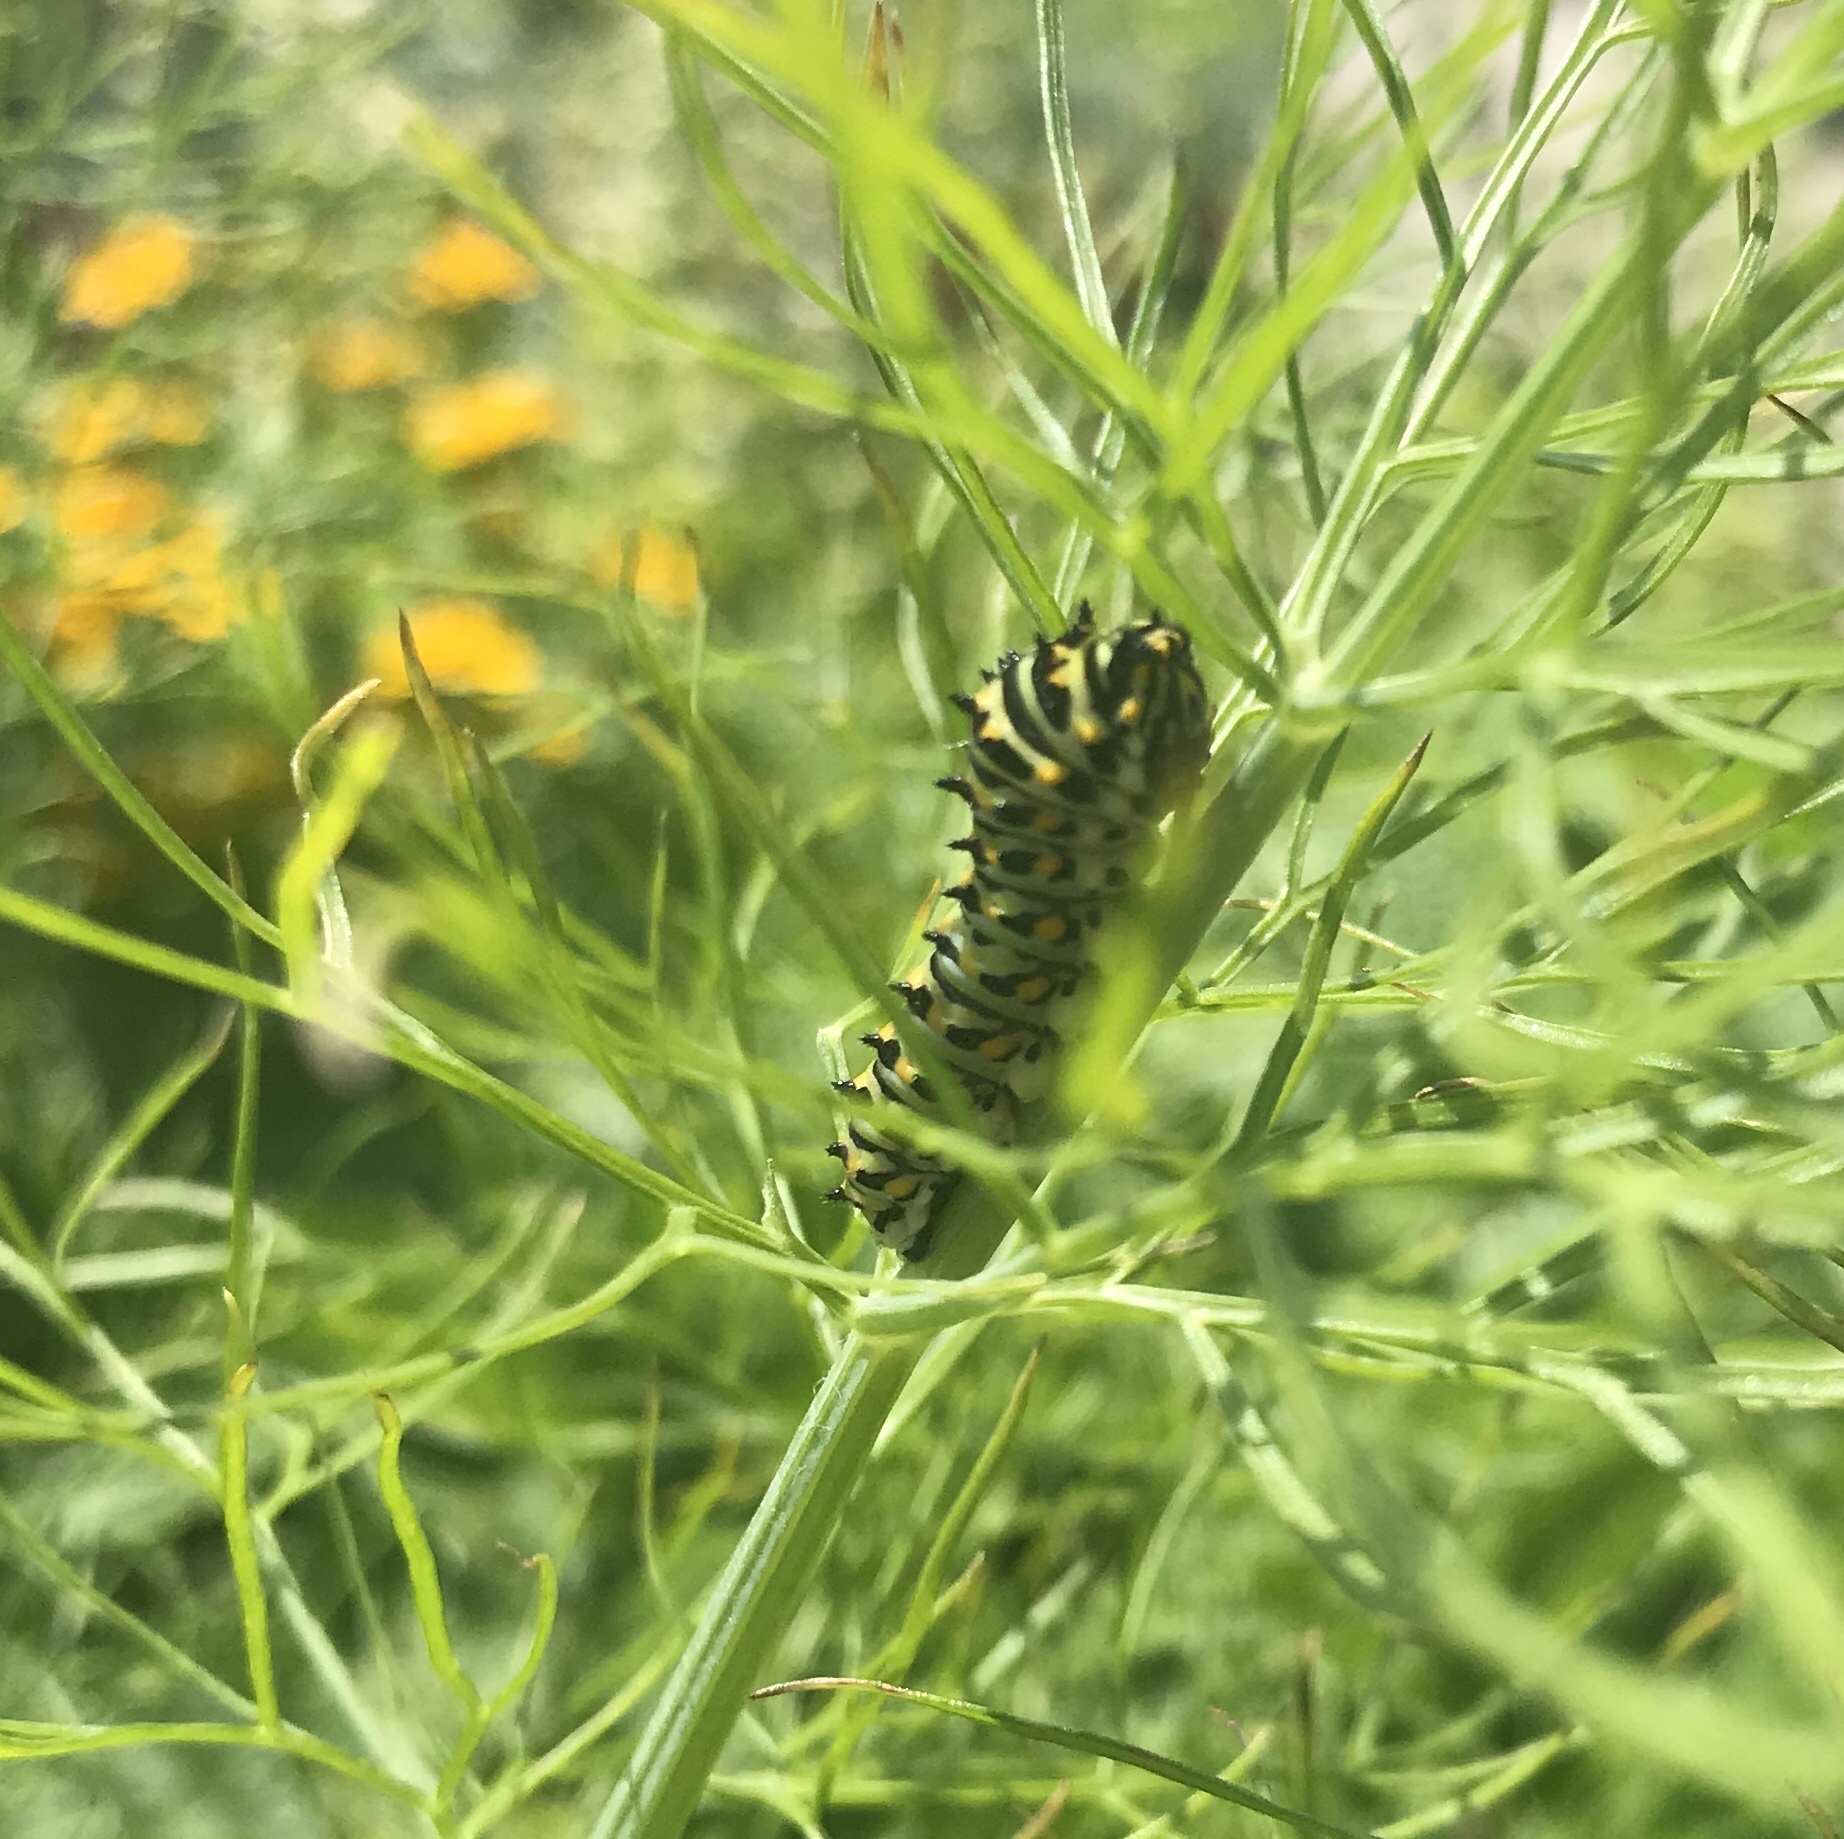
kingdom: Animalia
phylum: Arthropoda
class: Insecta
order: Lepidoptera
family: Papilionidae
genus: Papilio
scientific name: Papilio zelicaon
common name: Anise swallowtail
